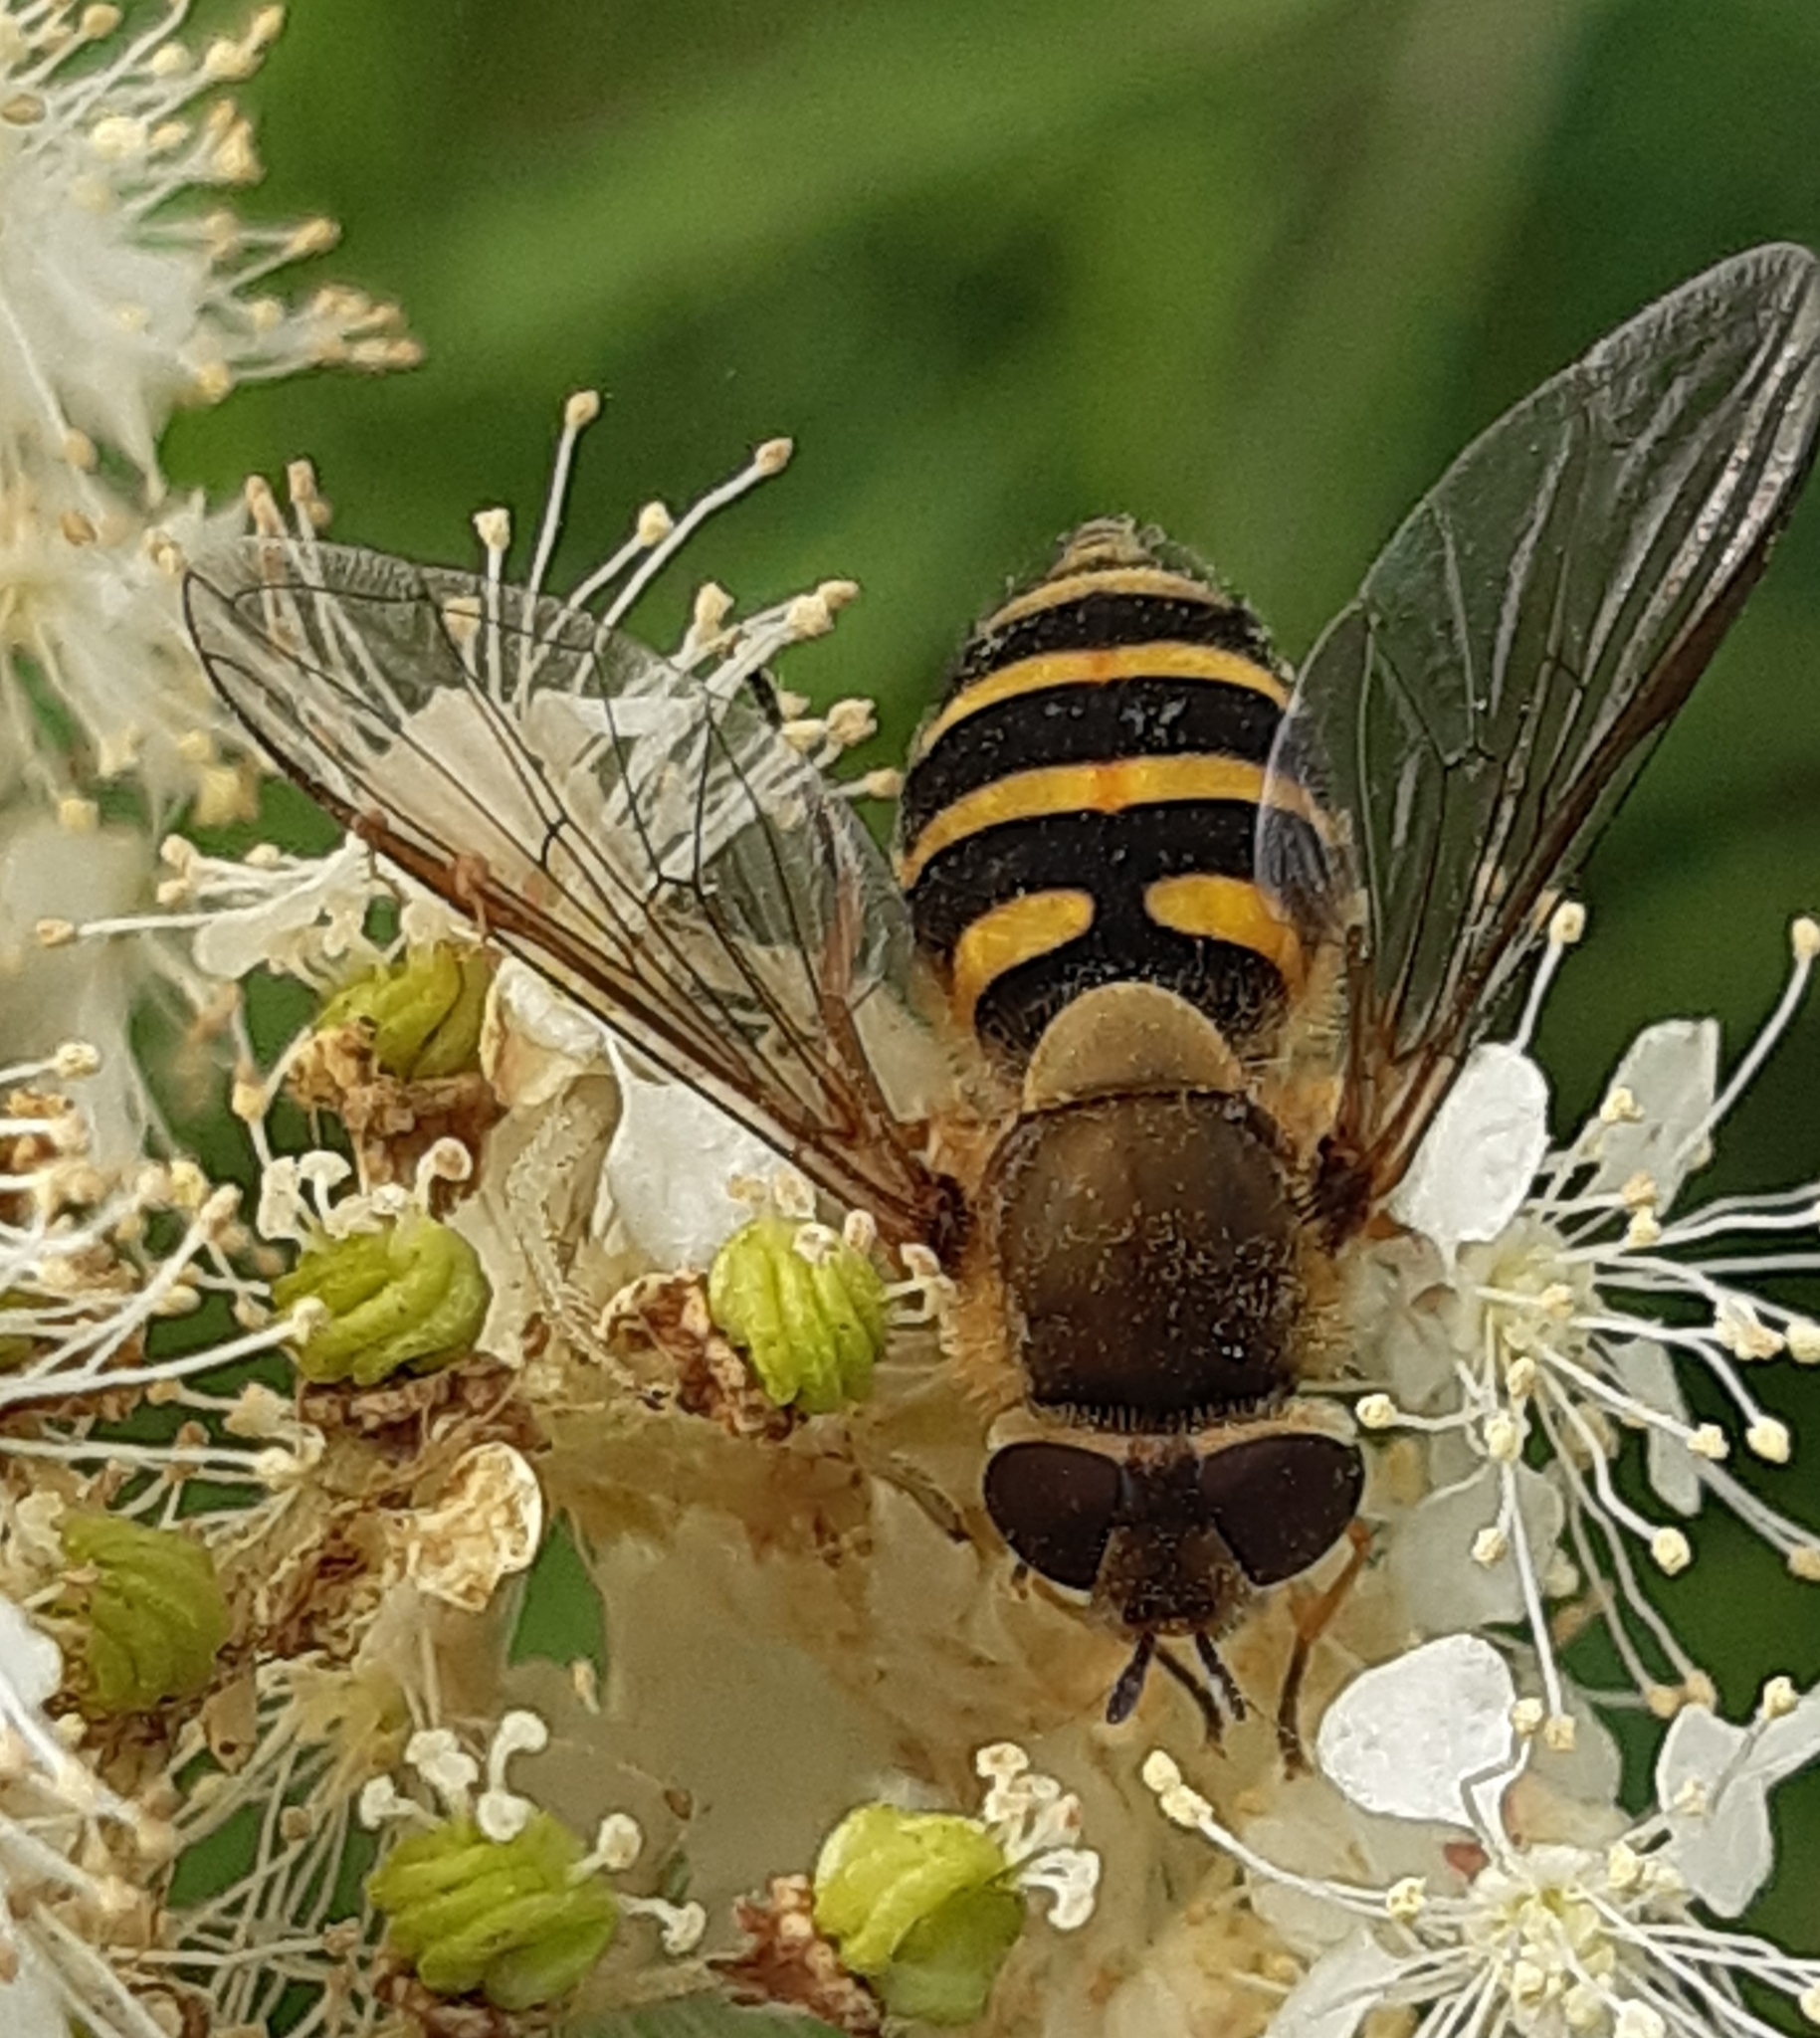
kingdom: Animalia
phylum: Arthropoda
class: Insecta
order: Diptera
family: Syrphidae
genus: Syrphus
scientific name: Syrphus
